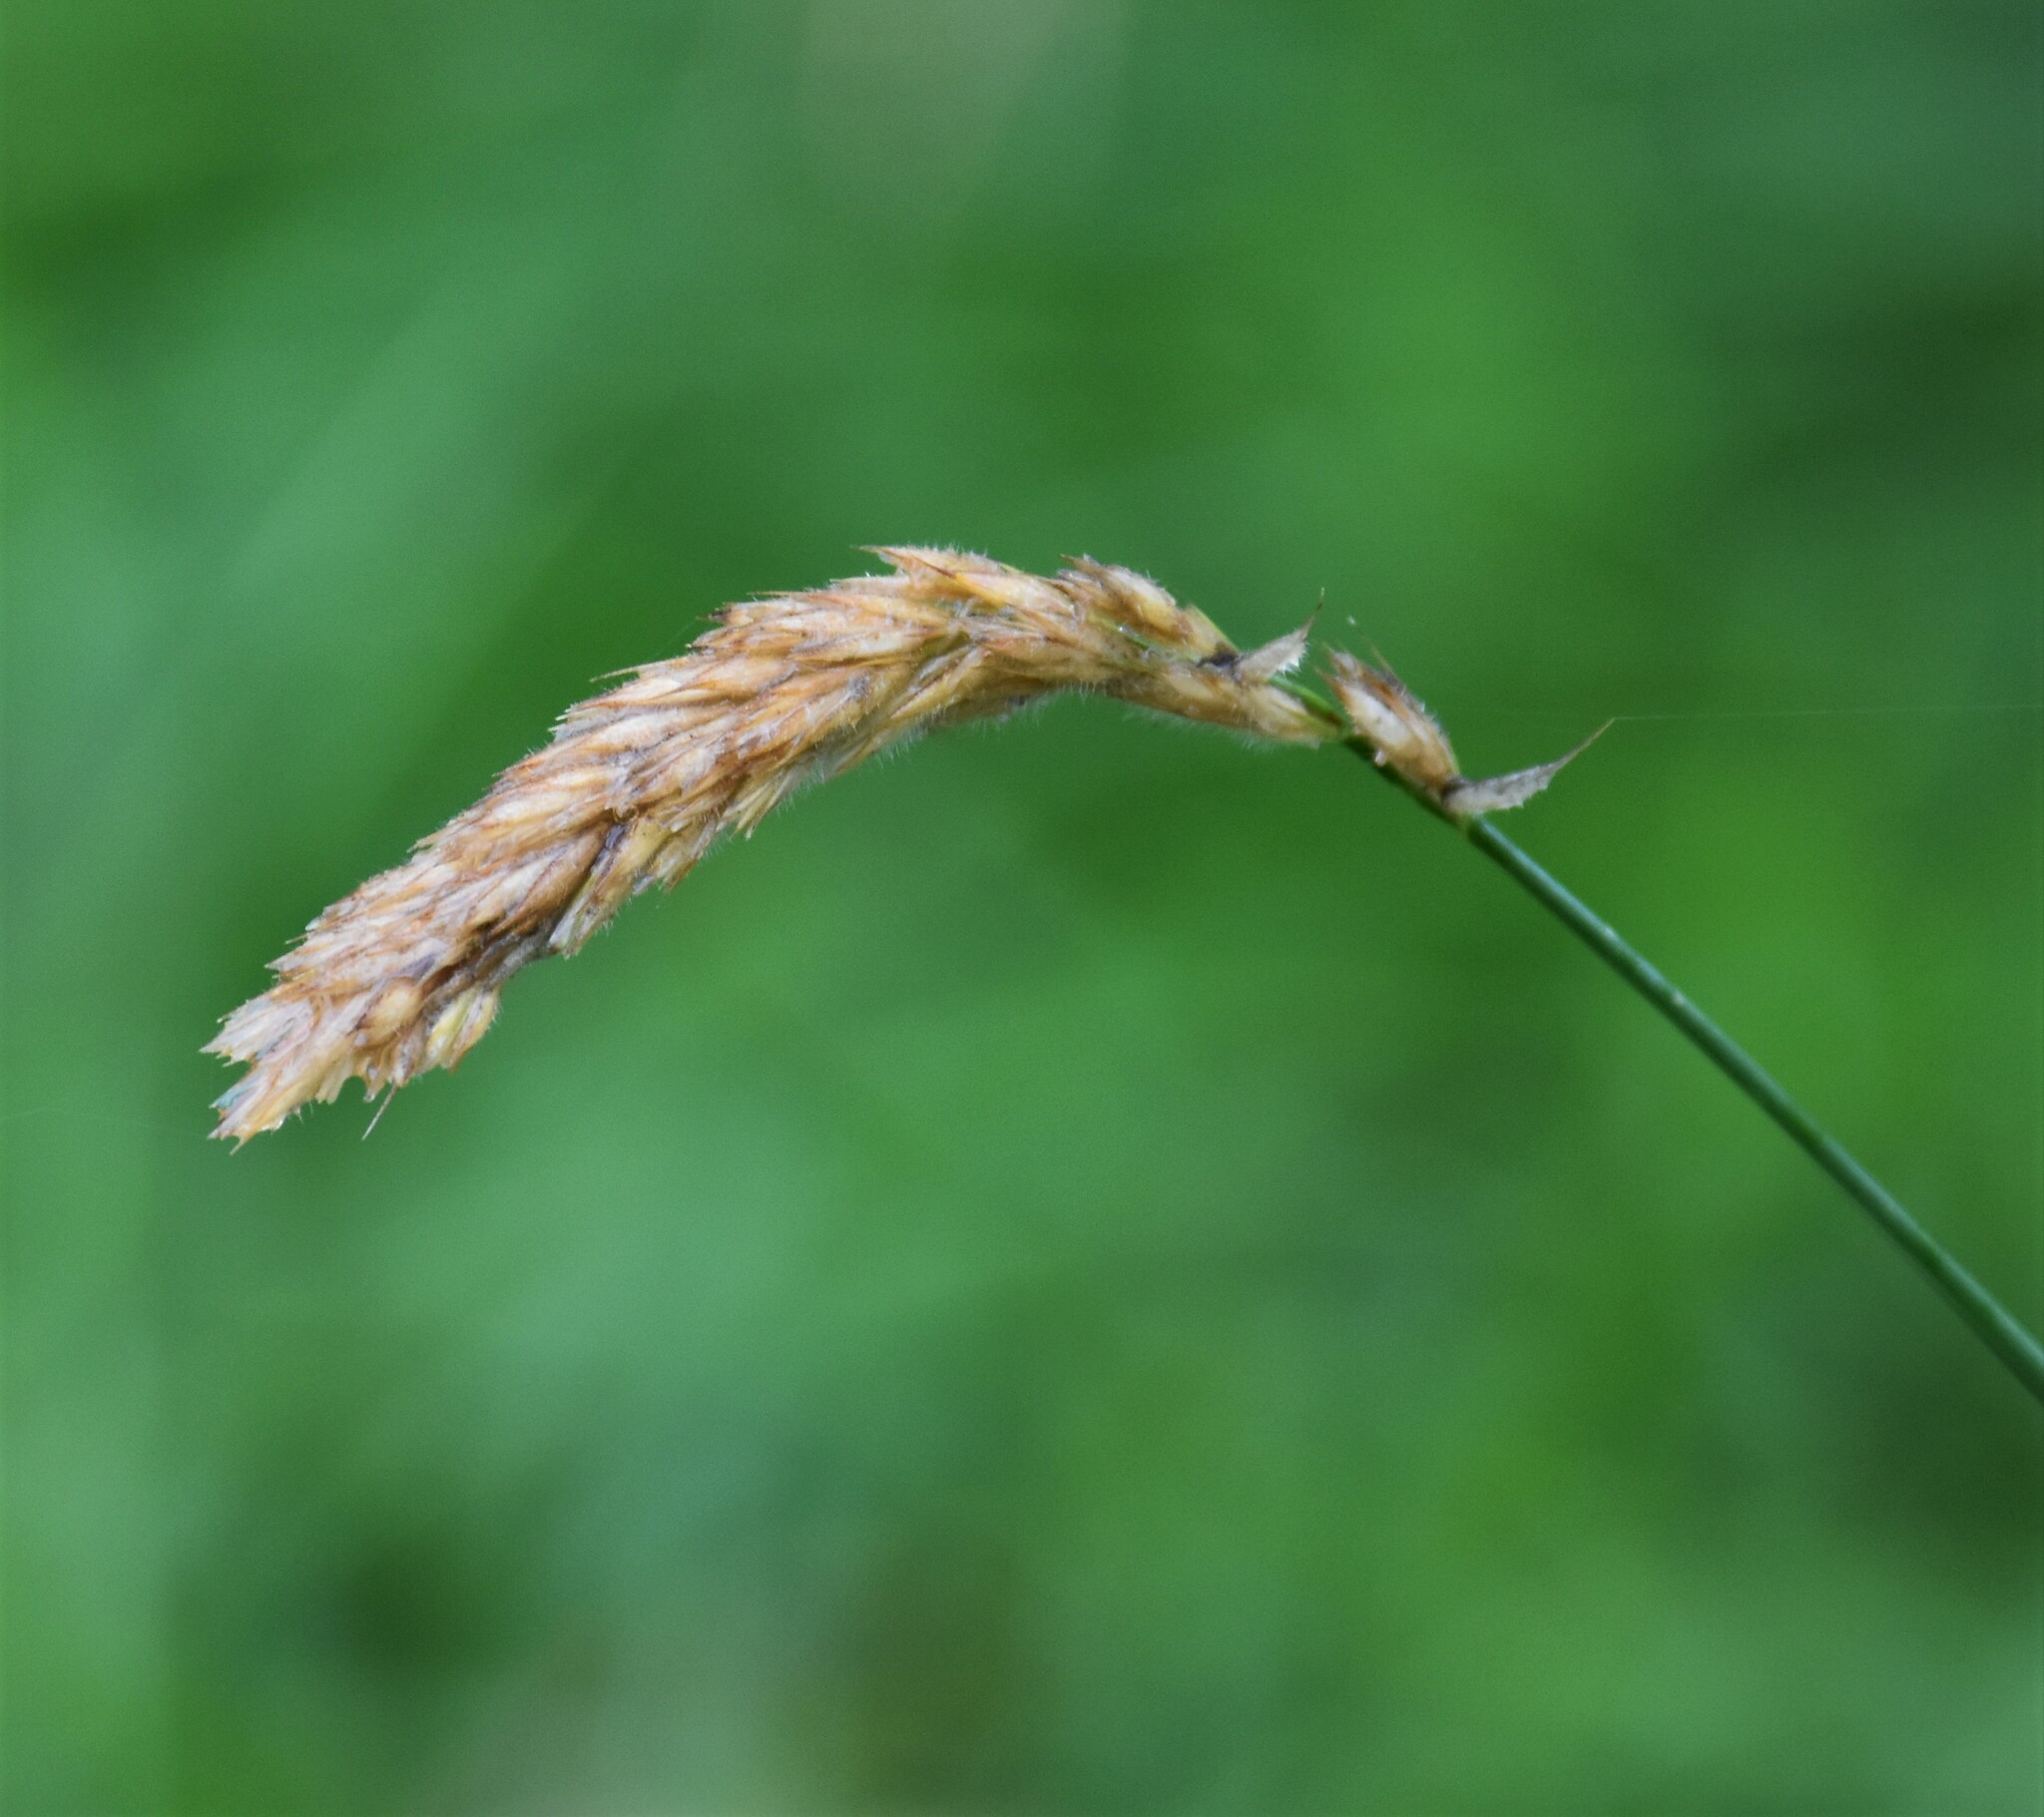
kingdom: Plantae
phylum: Tracheophyta
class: Liliopsida
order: Poales
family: Poaceae
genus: Leymus
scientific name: Leymus innovatus
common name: Boreal wild rye
